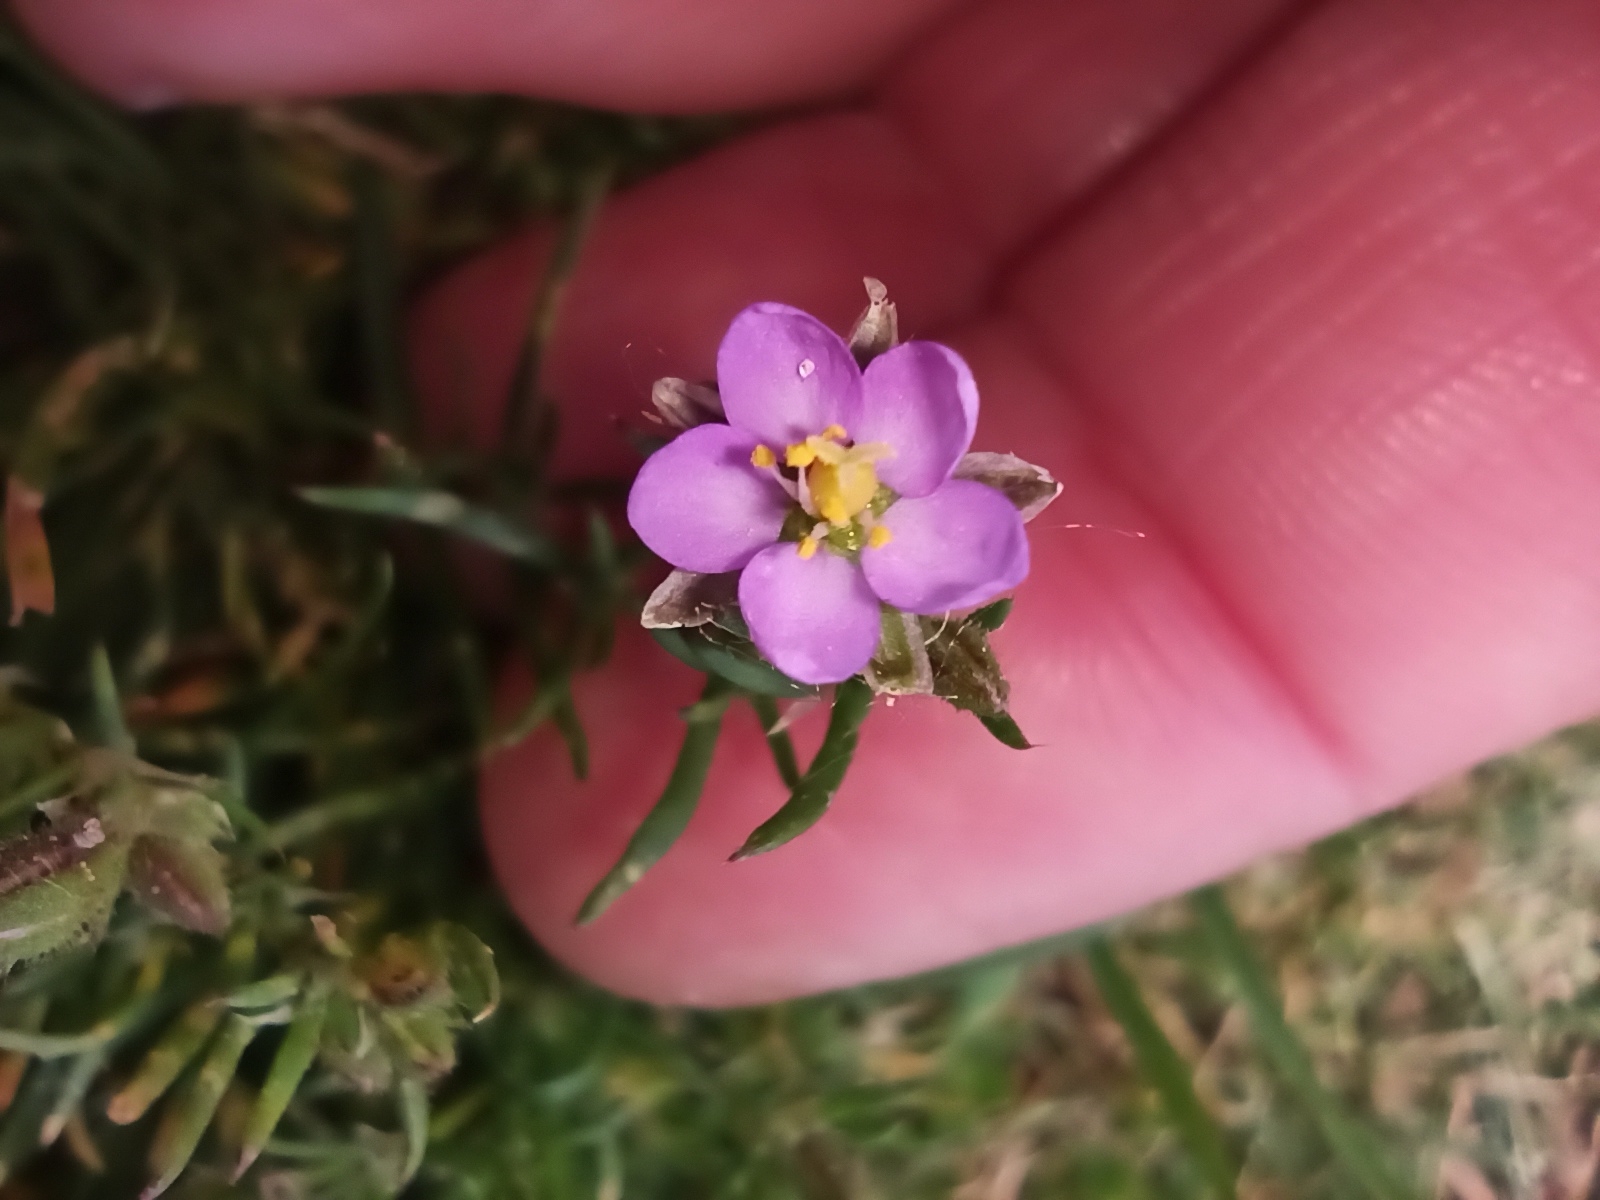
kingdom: Plantae
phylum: Tracheophyta
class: Magnoliopsida
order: Caryophyllales
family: Caryophyllaceae
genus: Spergularia
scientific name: Spergularia rubra
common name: Red sand-spurrey
